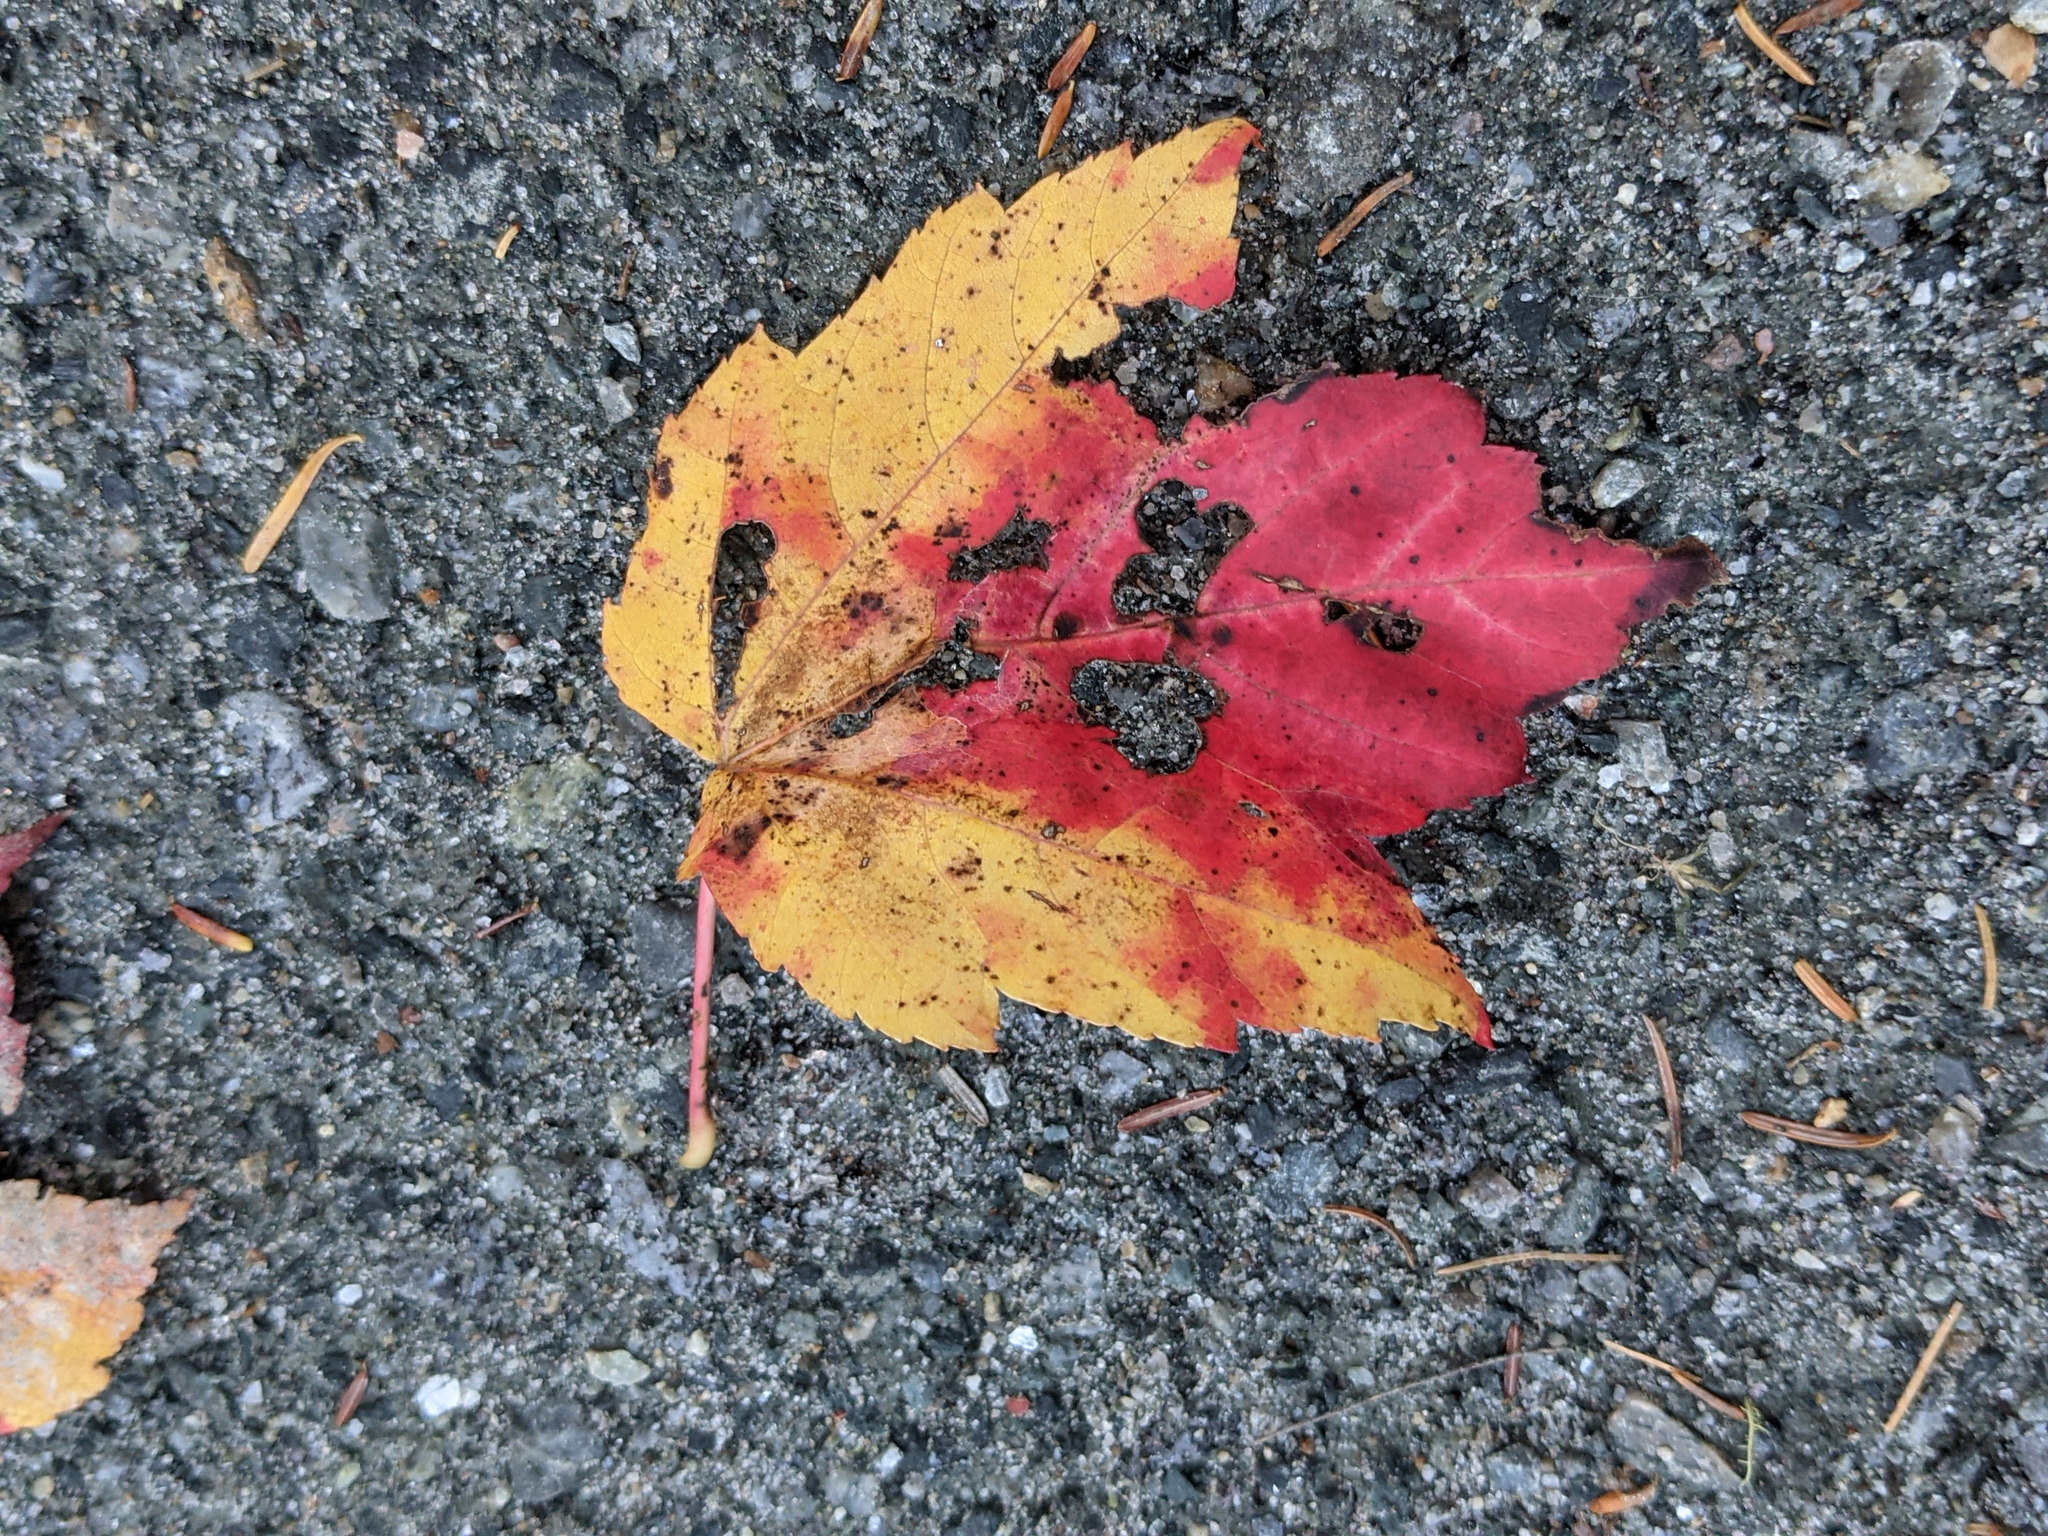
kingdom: Plantae
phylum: Tracheophyta
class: Magnoliopsida
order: Sapindales
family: Sapindaceae
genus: Acer
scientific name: Acer rubrum
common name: Red maple
